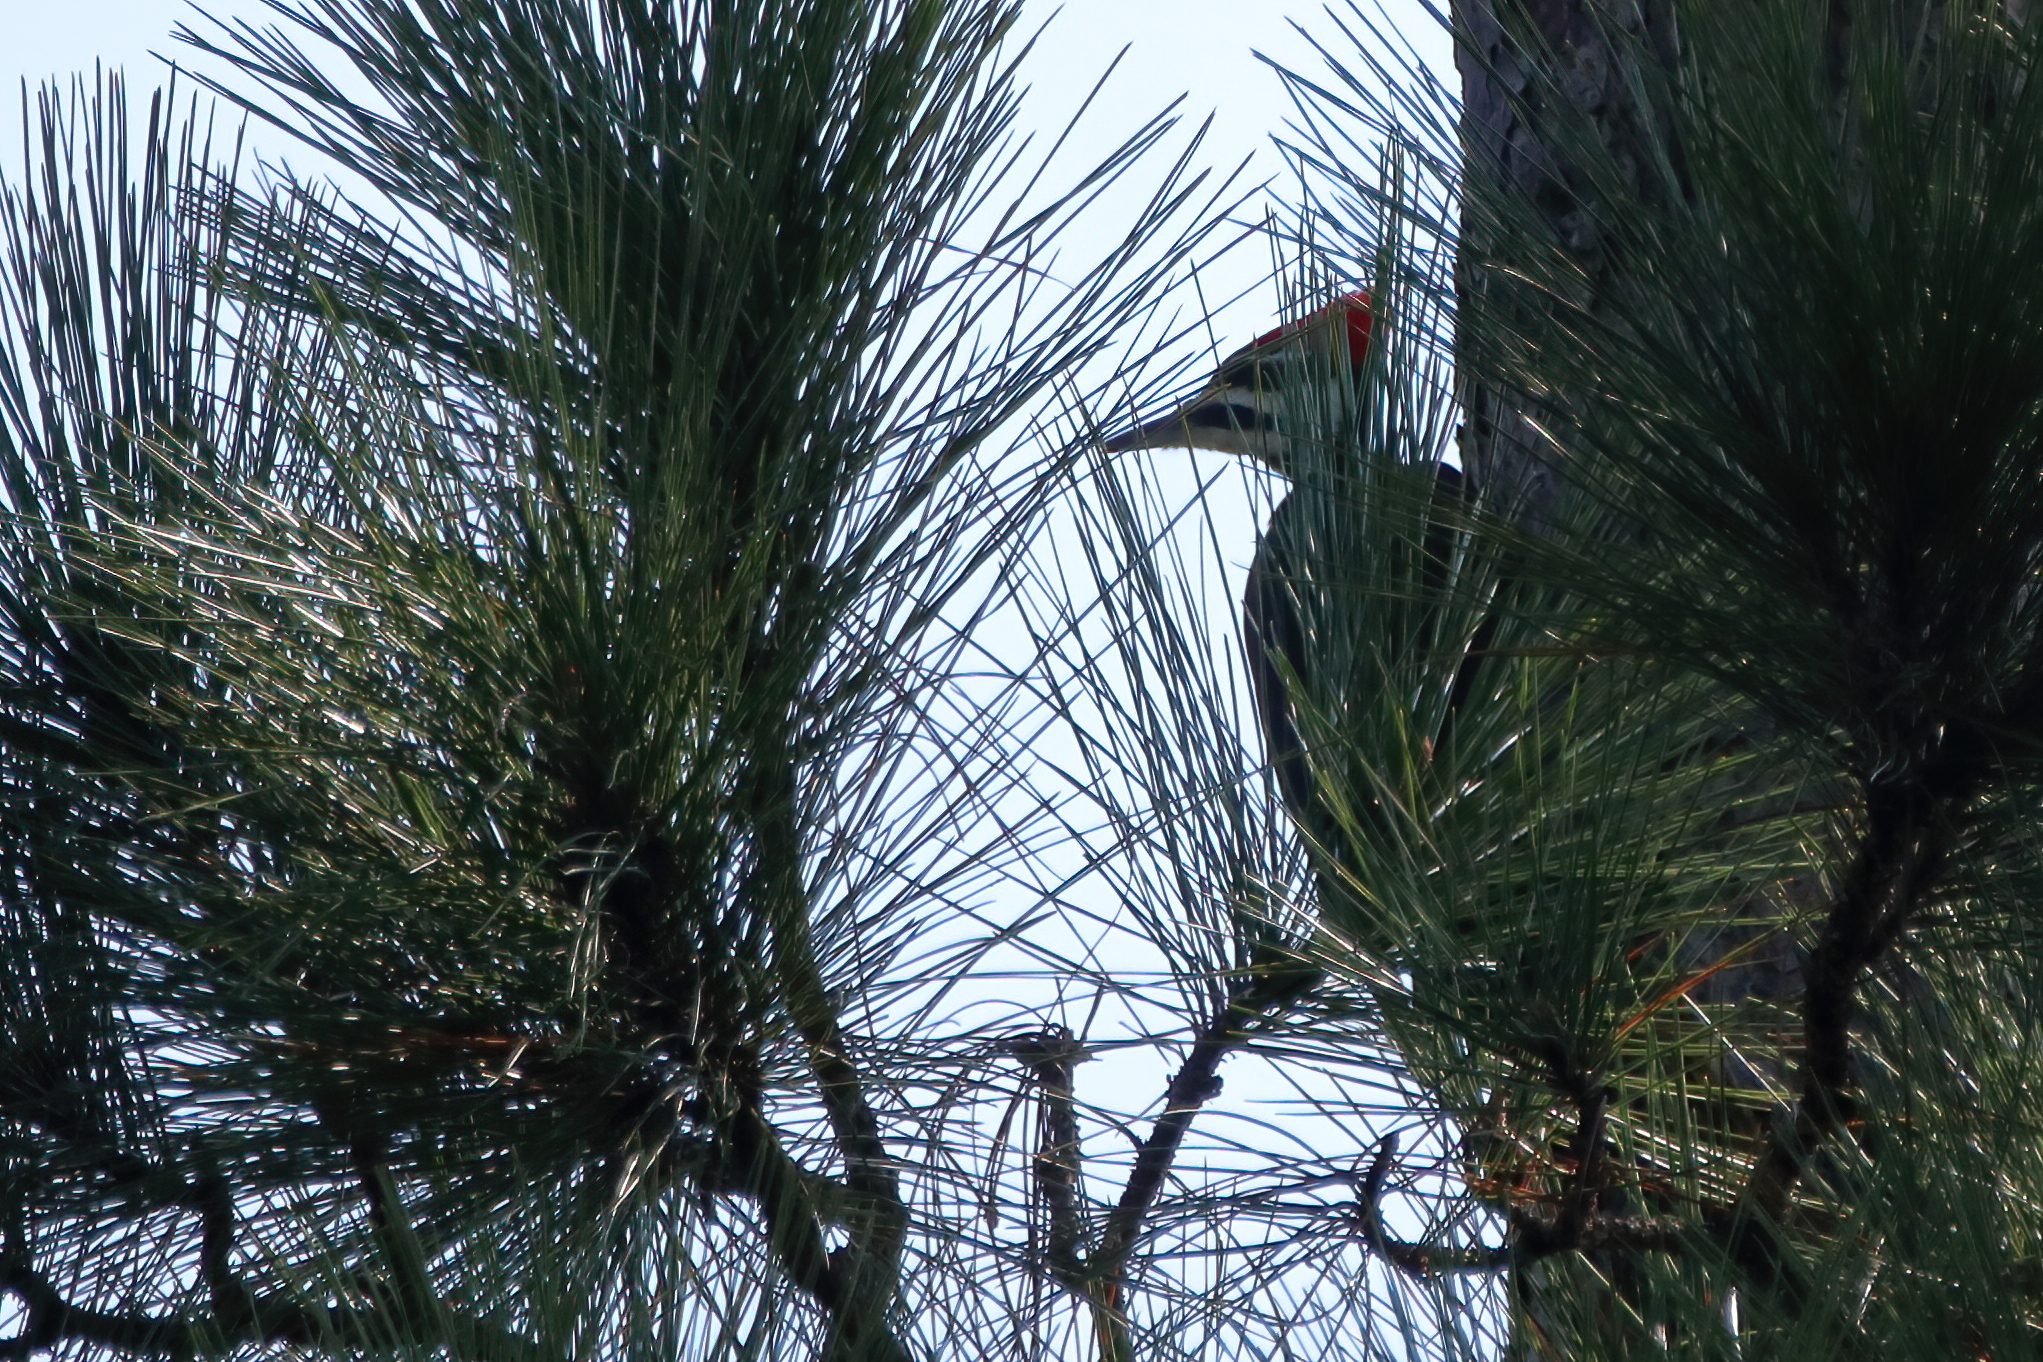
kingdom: Animalia
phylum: Chordata
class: Aves
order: Piciformes
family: Picidae
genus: Dryocopus
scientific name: Dryocopus pileatus
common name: Pileated woodpecker
